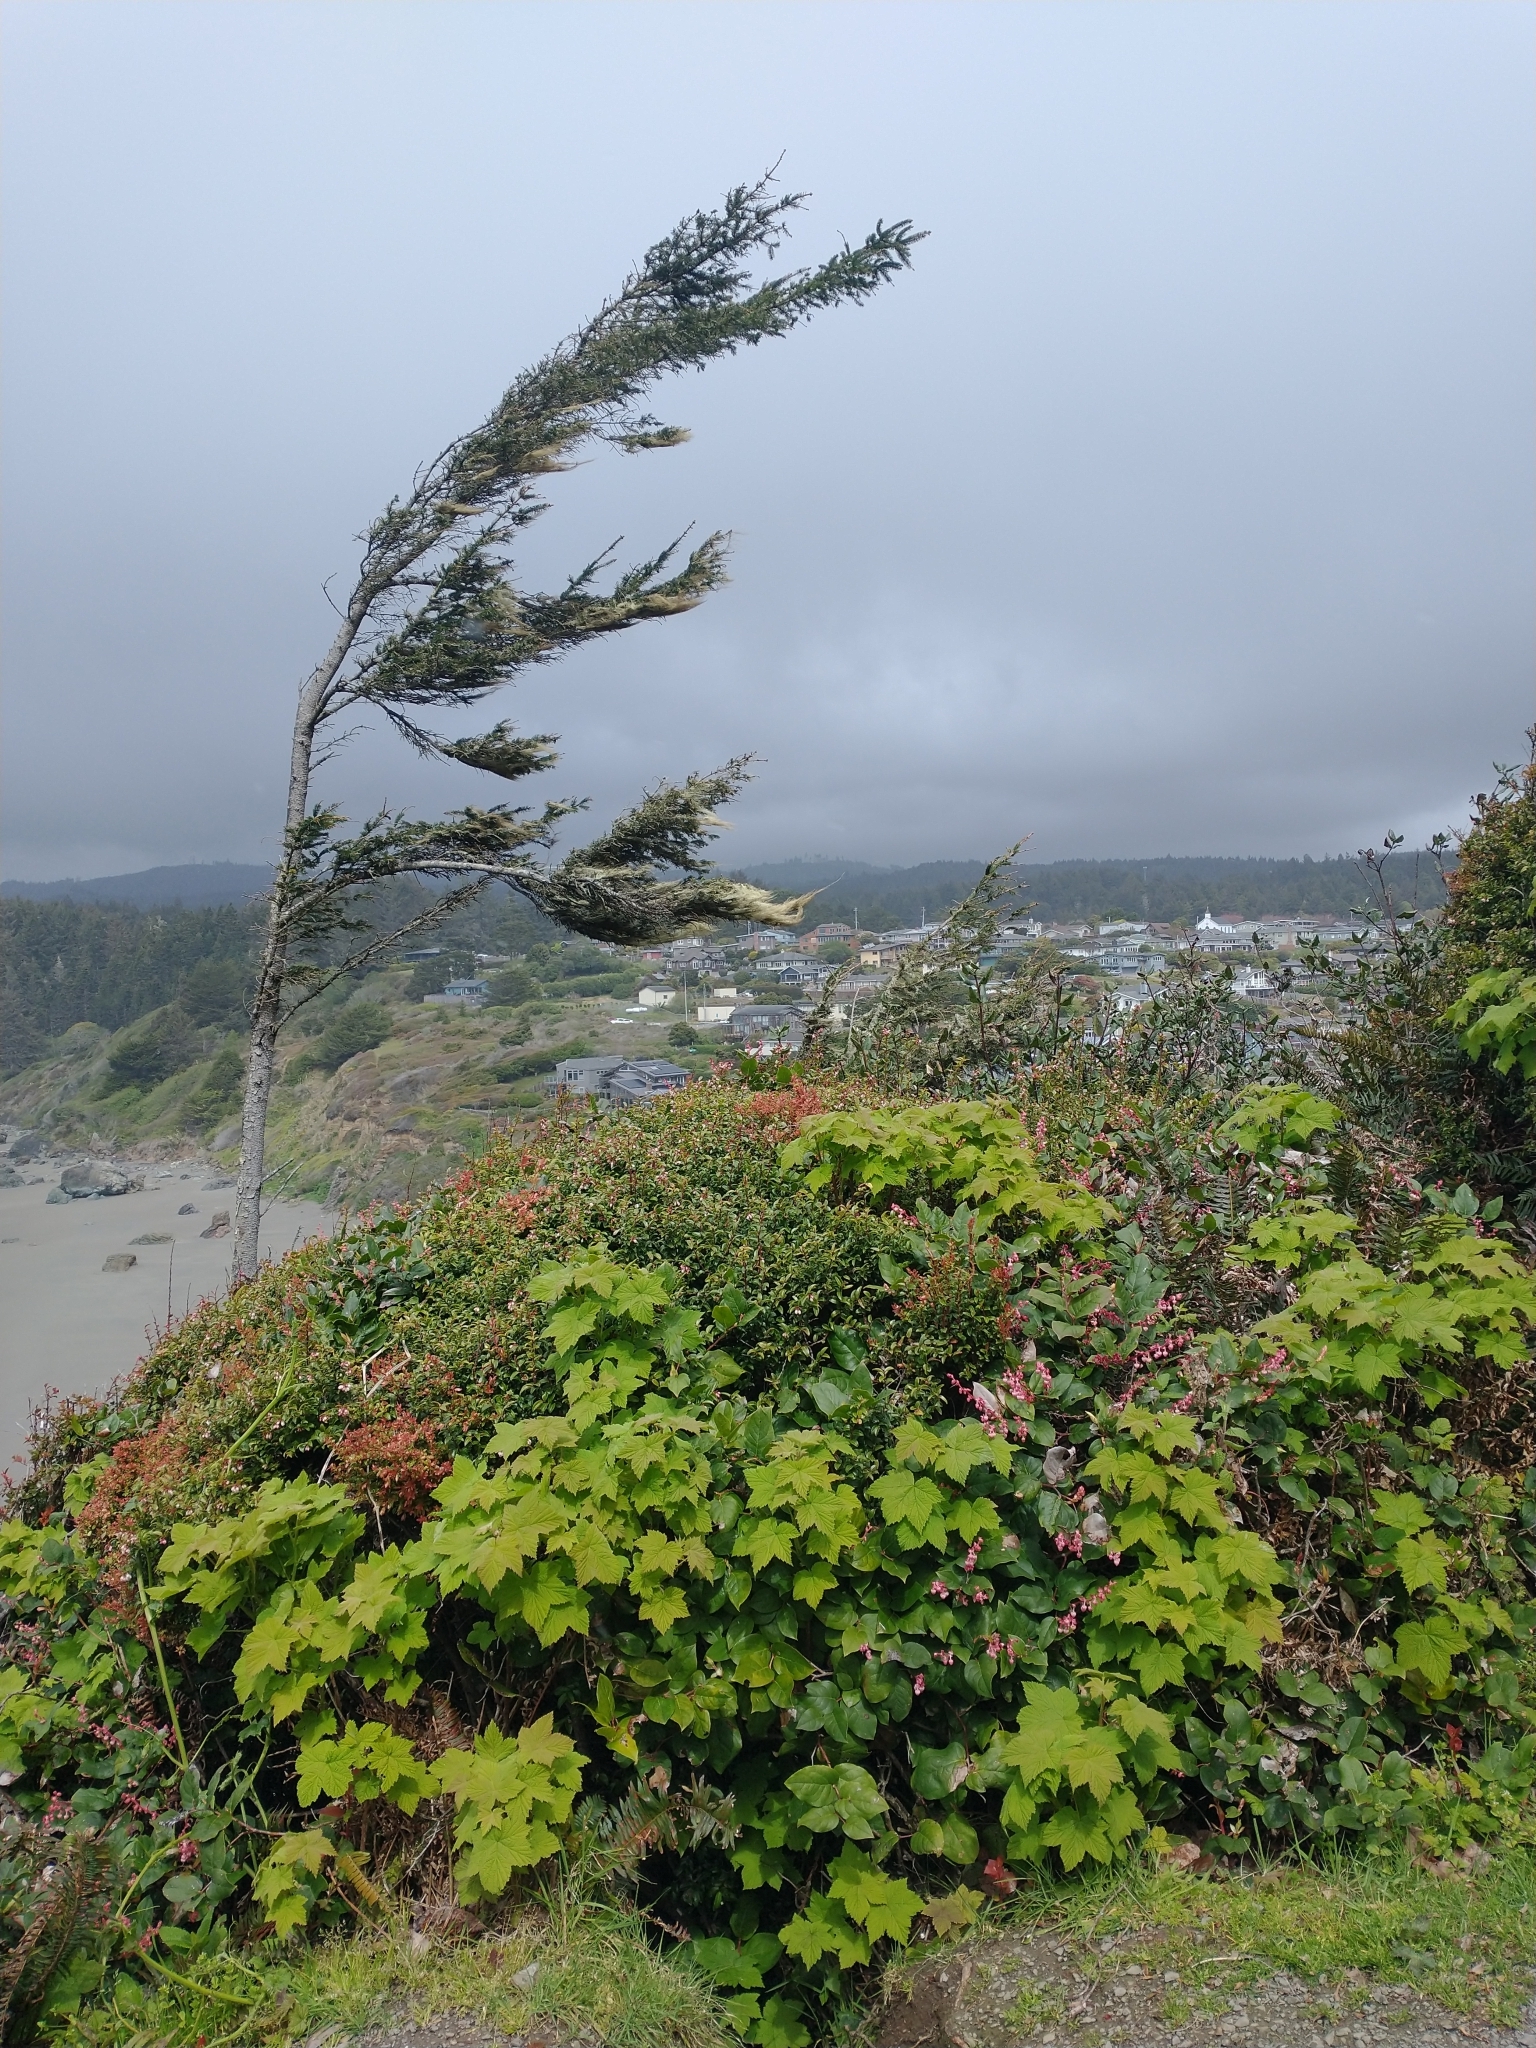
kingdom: Plantae
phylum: Tracheophyta
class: Pinopsida
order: Pinales
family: Pinaceae
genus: Picea
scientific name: Picea sitchensis
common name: Sitka spruce
